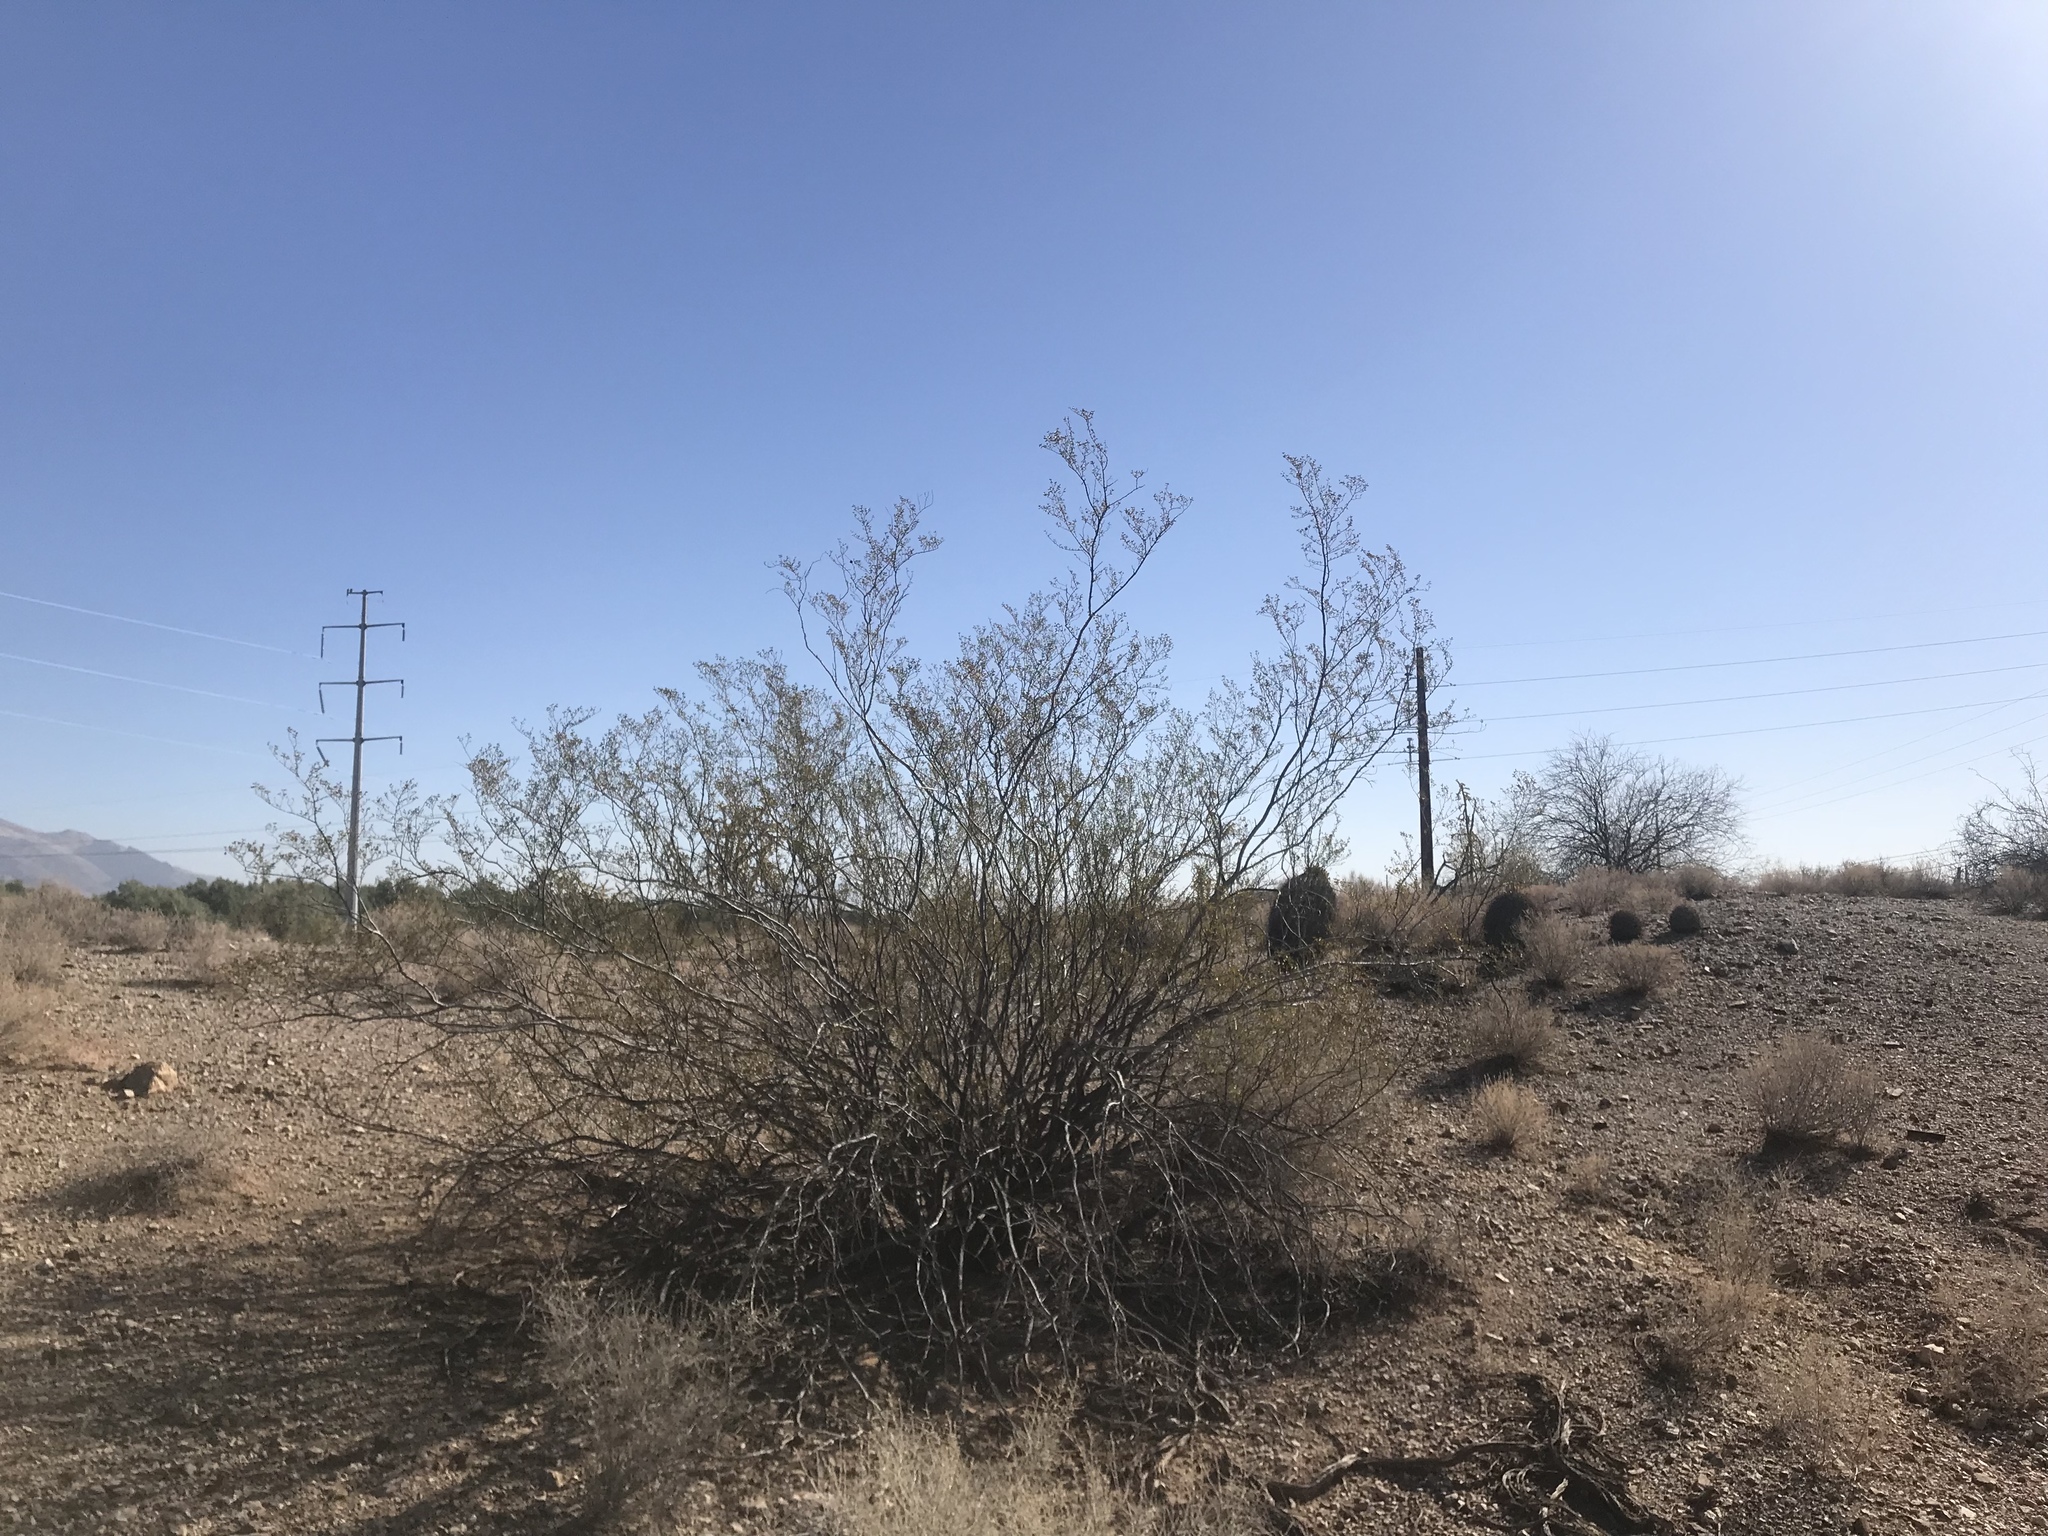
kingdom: Plantae
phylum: Tracheophyta
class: Magnoliopsida
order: Zygophyllales
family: Zygophyllaceae
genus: Larrea
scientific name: Larrea tridentata
